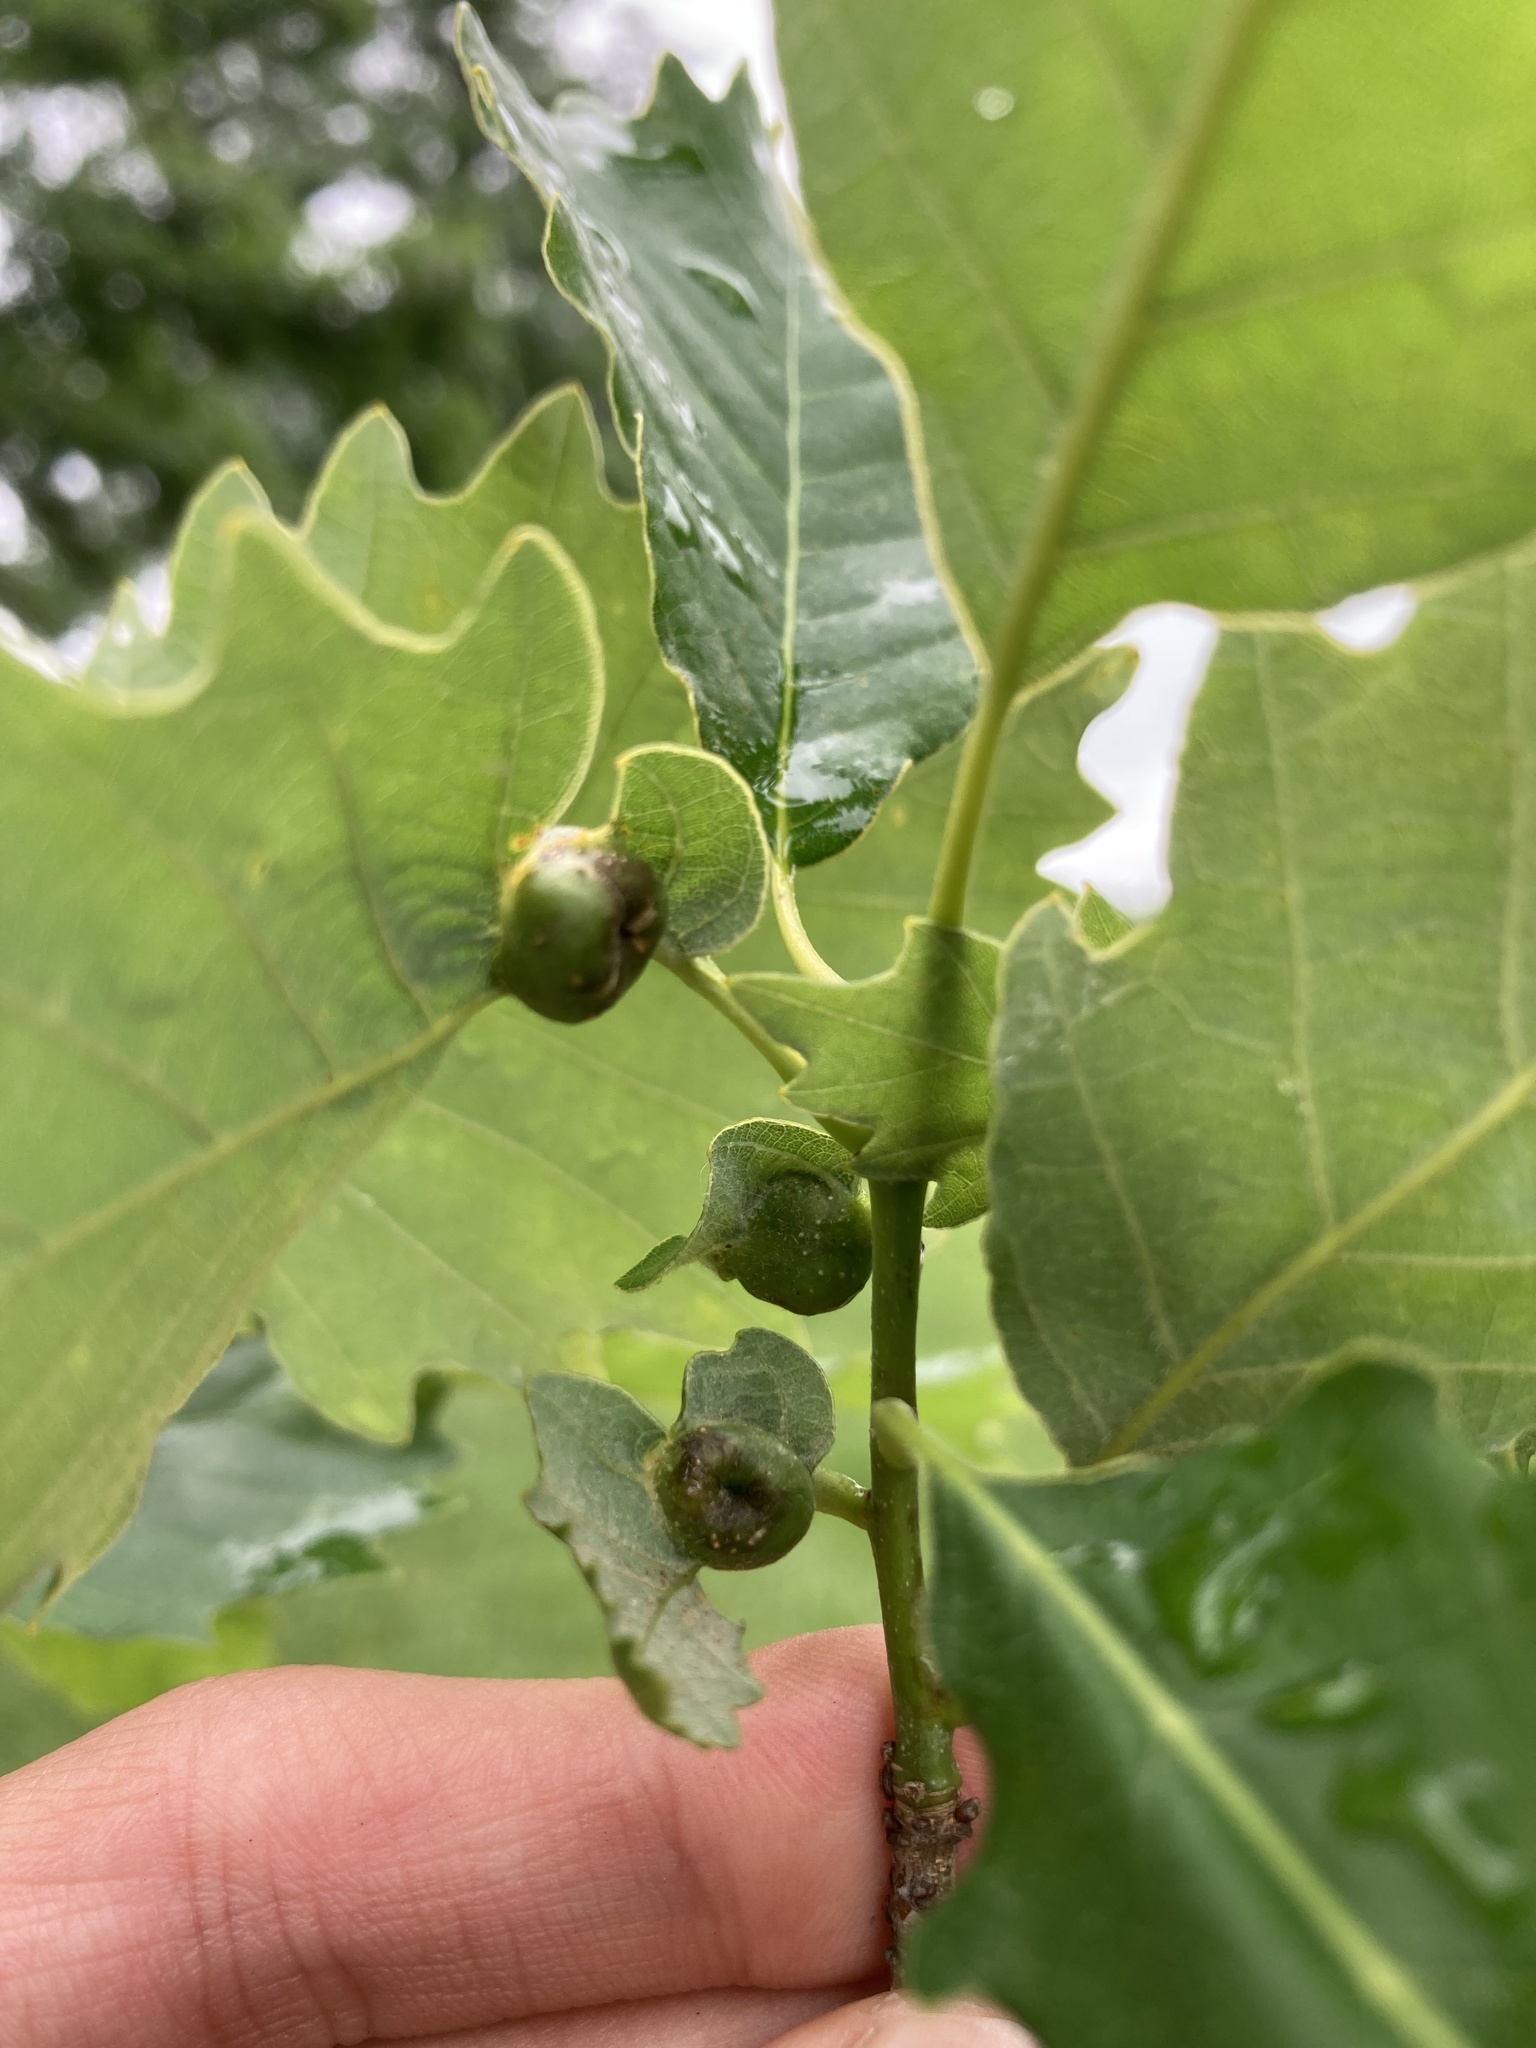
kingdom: Animalia
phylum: Arthropoda
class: Insecta
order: Hymenoptera
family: Cynipidae
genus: Andricus
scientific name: Andricus
